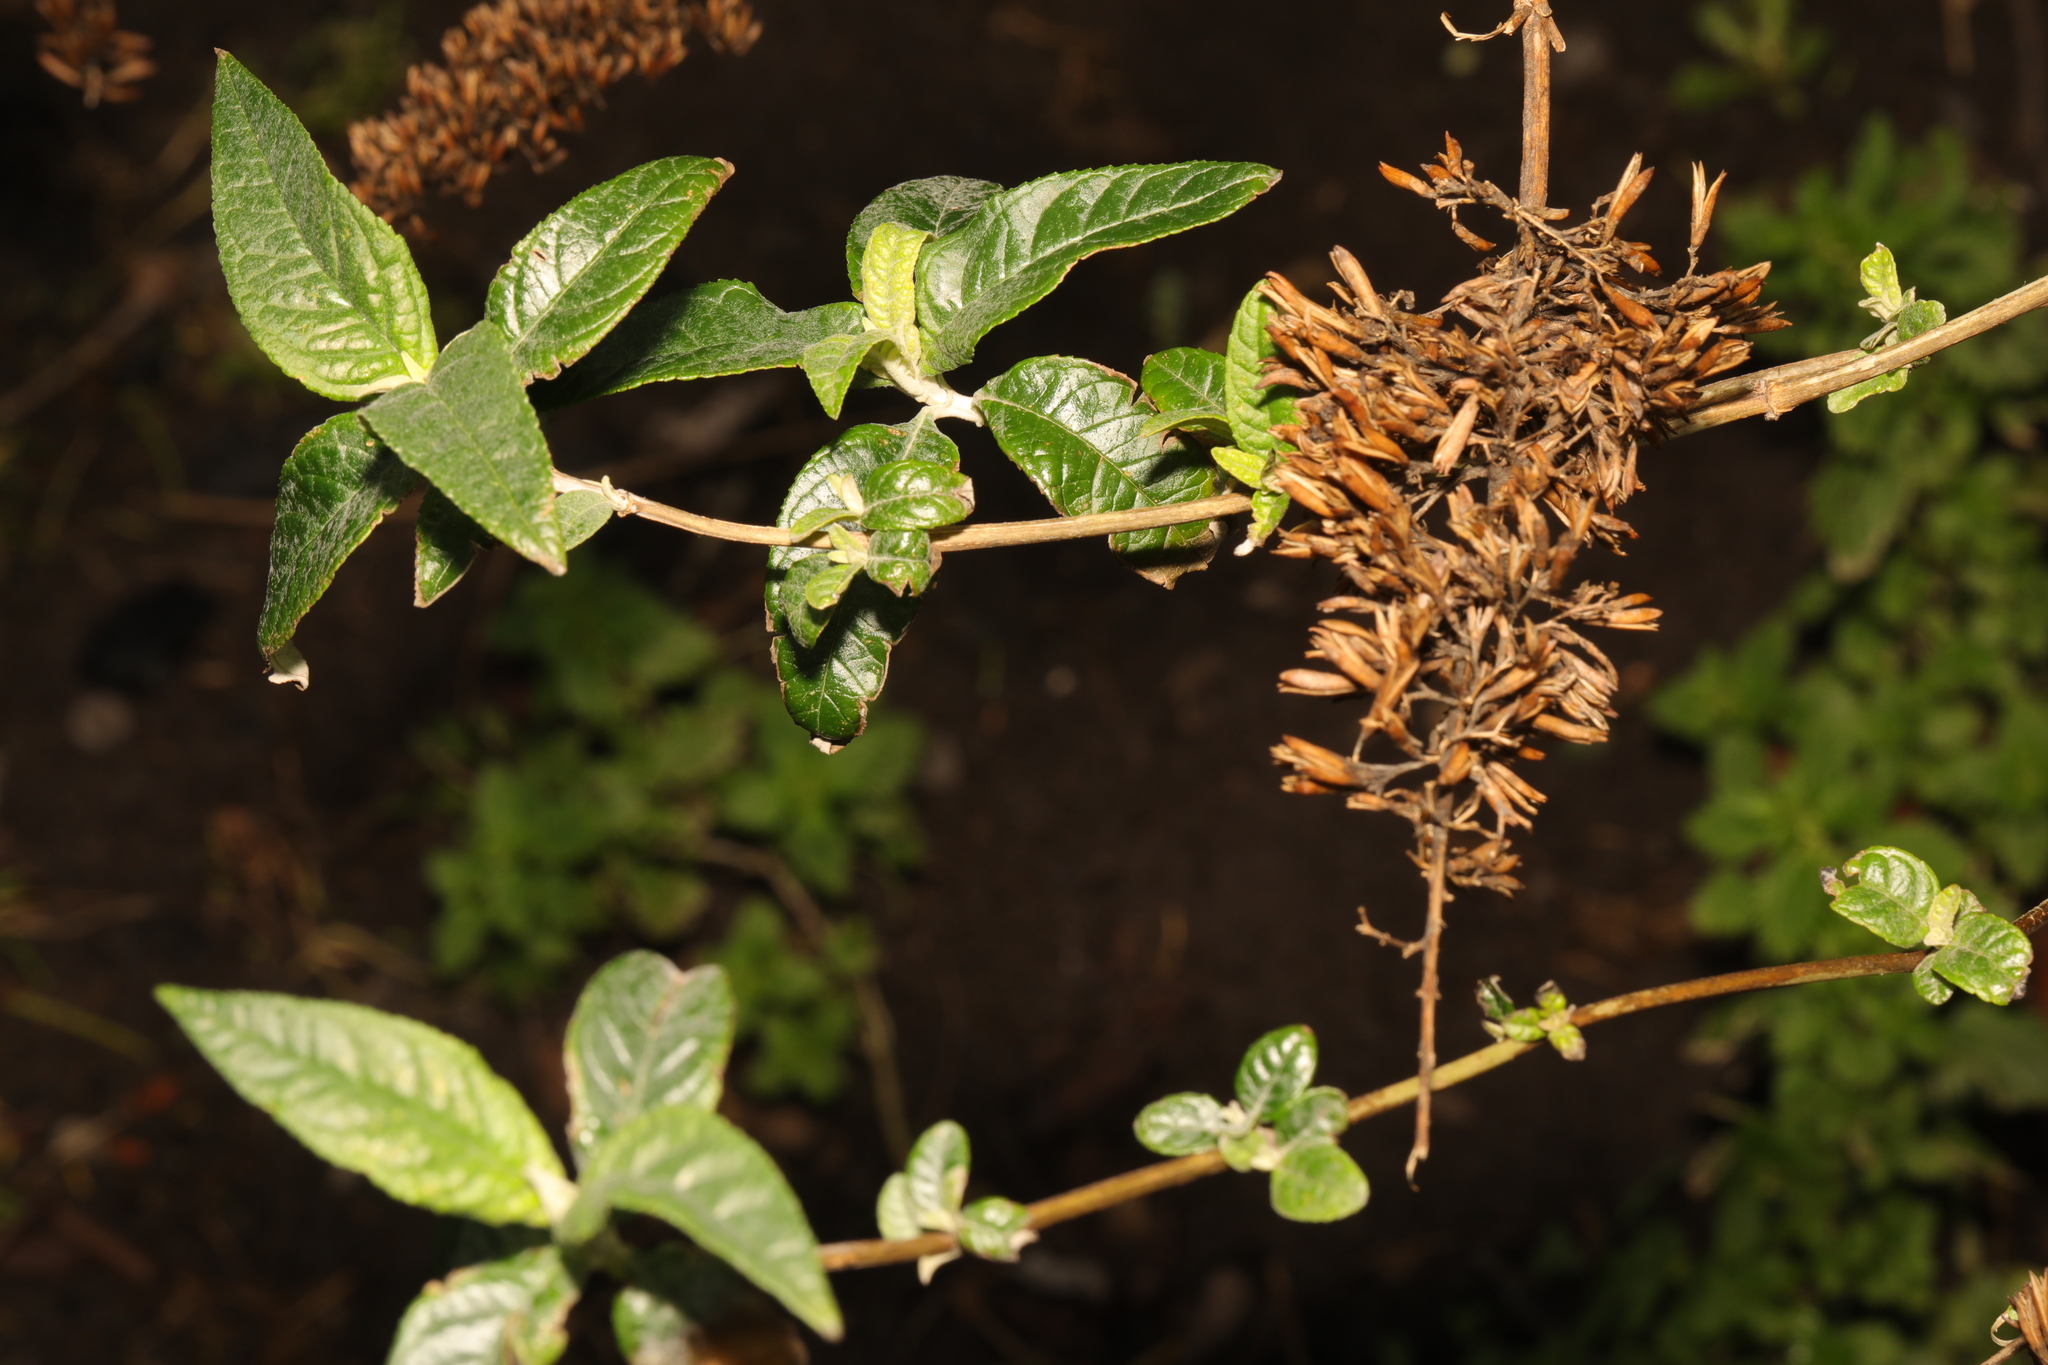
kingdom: Plantae
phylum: Tracheophyta
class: Magnoliopsida
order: Lamiales
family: Scrophulariaceae
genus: Buddleja
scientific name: Buddleja davidii
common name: Butterfly-bush
